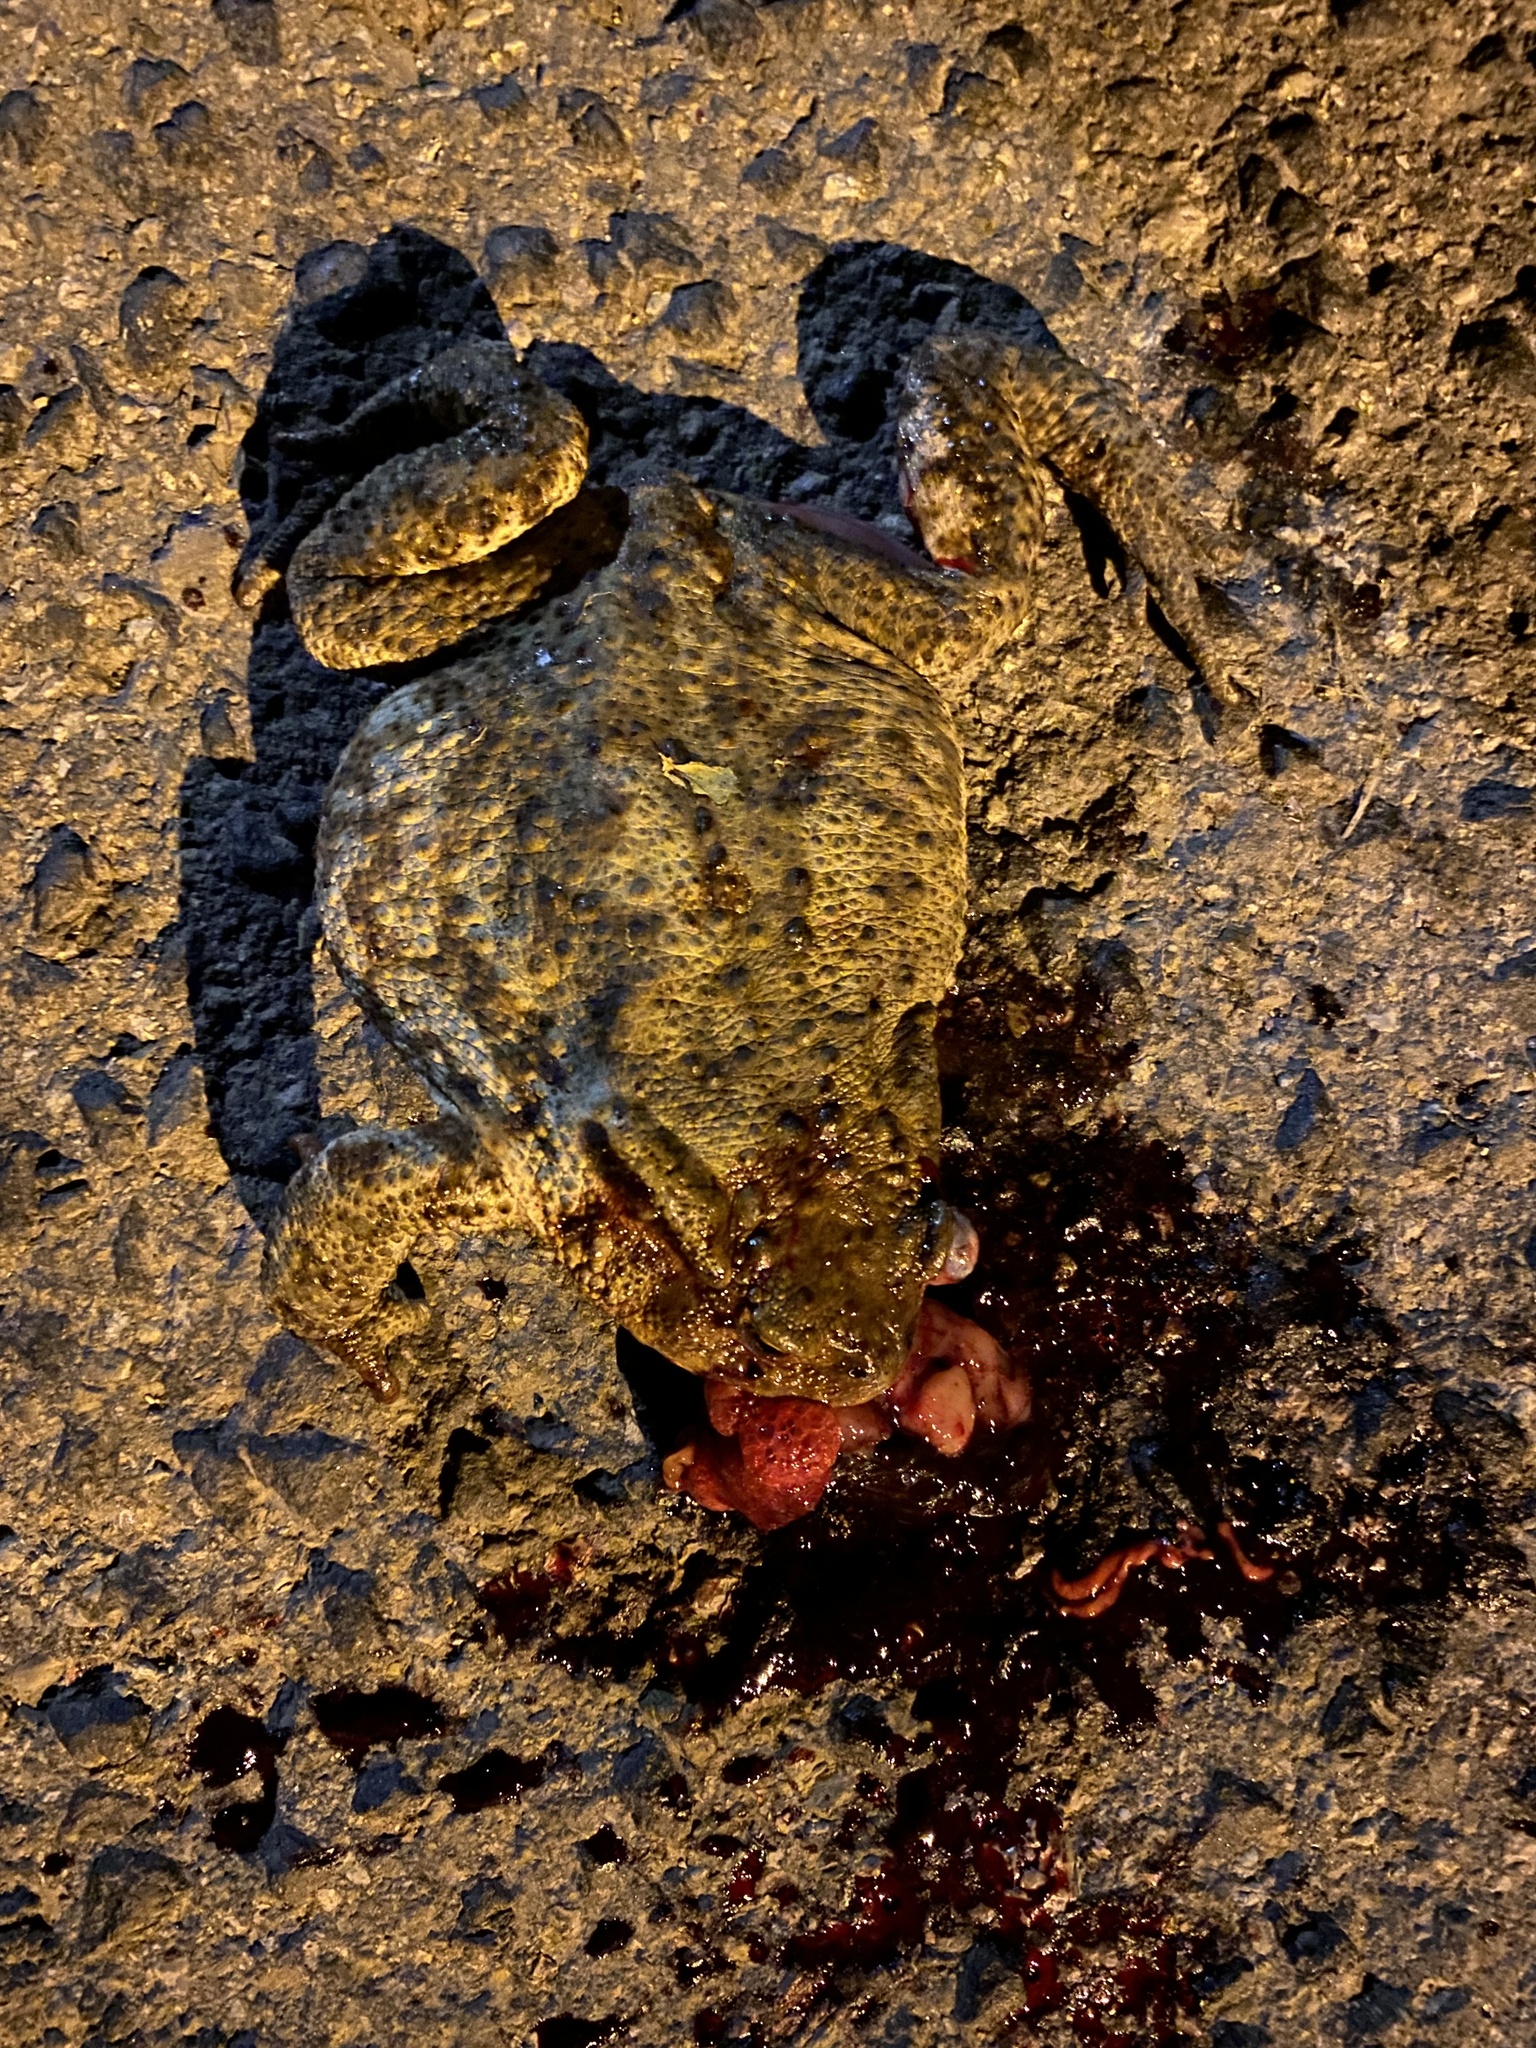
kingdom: Animalia
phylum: Chordata
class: Amphibia
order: Anura
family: Bufonidae
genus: Bufo
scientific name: Bufo bufo
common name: Common toad
